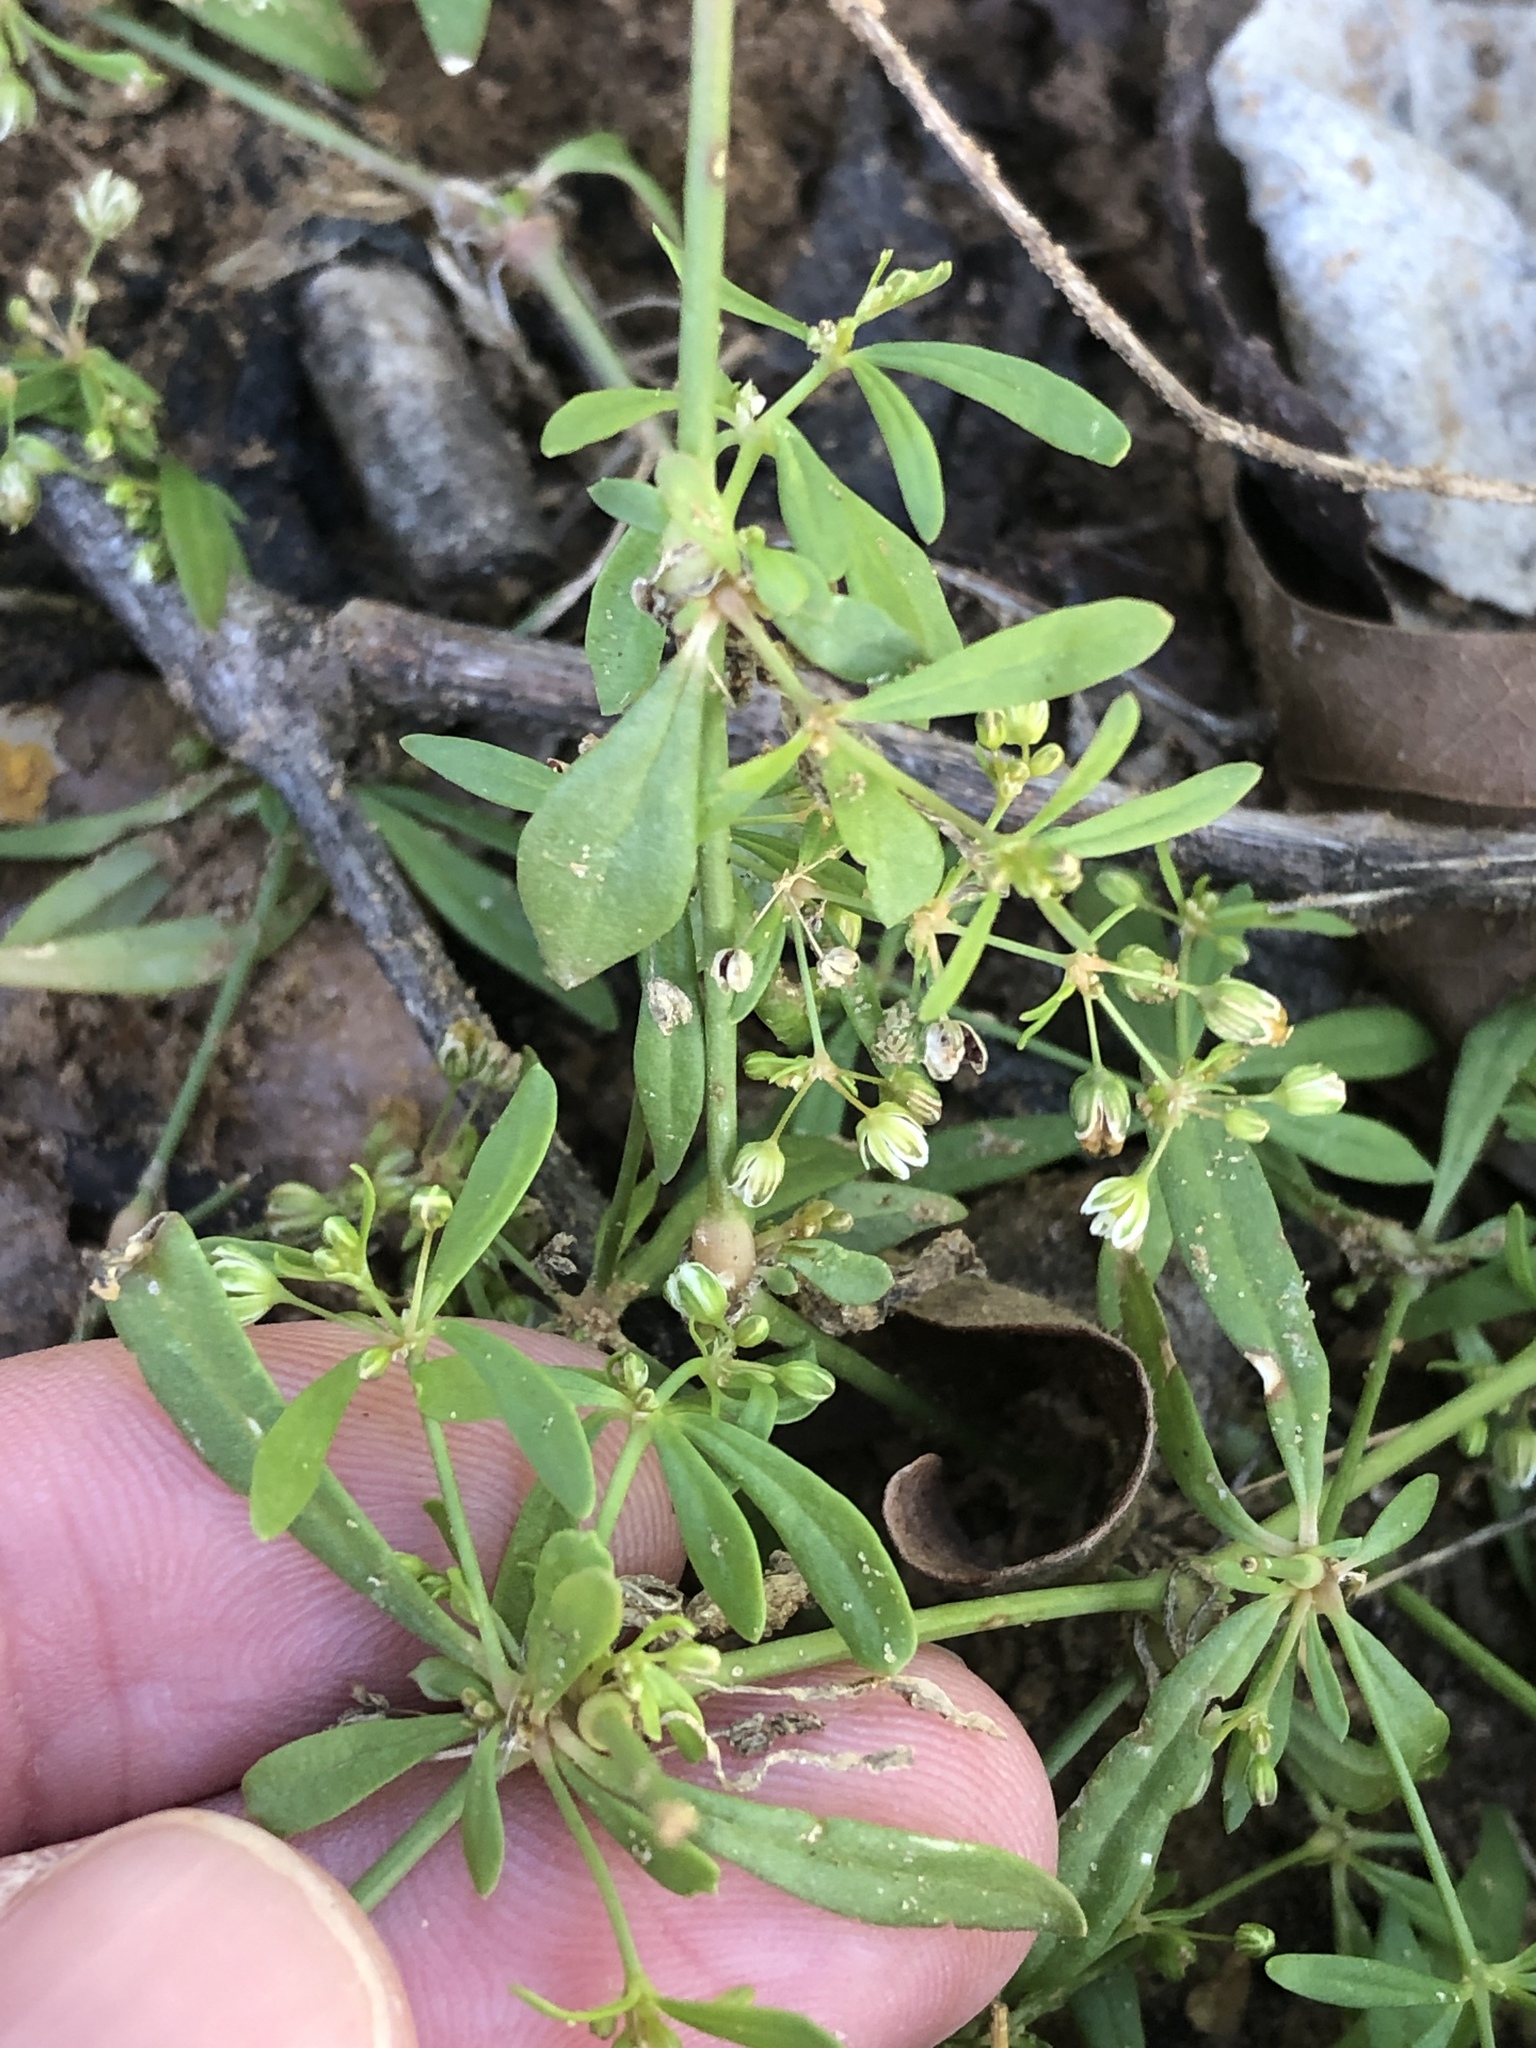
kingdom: Plantae
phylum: Tracheophyta
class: Magnoliopsida
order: Caryophyllales
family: Molluginaceae
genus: Mollugo
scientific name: Mollugo verticillata
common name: Green carpetweed
